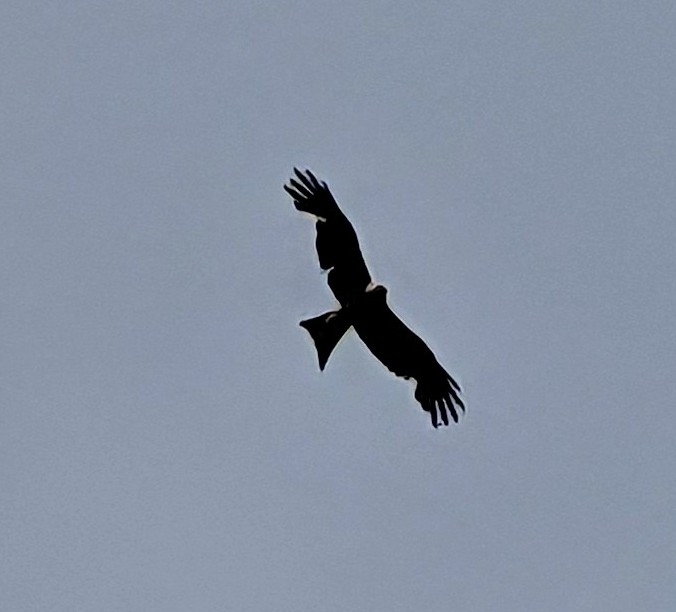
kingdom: Animalia
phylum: Chordata
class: Aves
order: Accipitriformes
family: Accipitridae
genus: Milvus
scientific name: Milvus milvus
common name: Red kite
